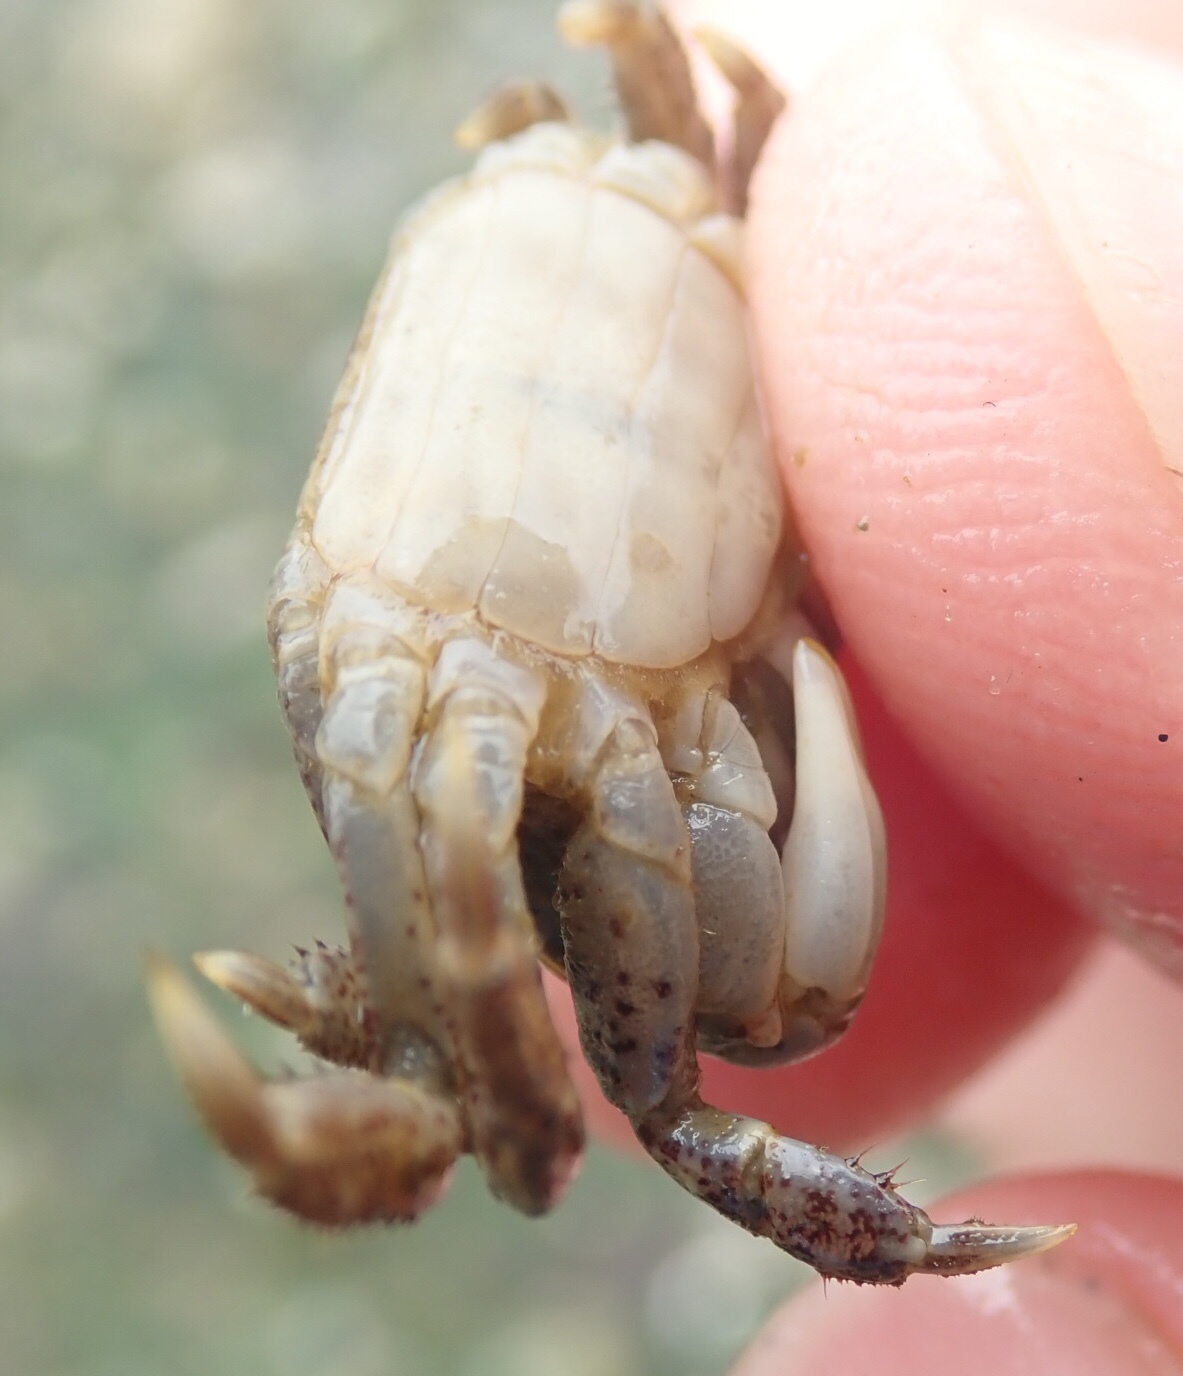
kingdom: Animalia
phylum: Arthropoda
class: Malacostraca
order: Decapoda
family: Varunidae
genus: Hemigrapsus
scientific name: Hemigrapsus oregonensis
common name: Yellow shore crab
